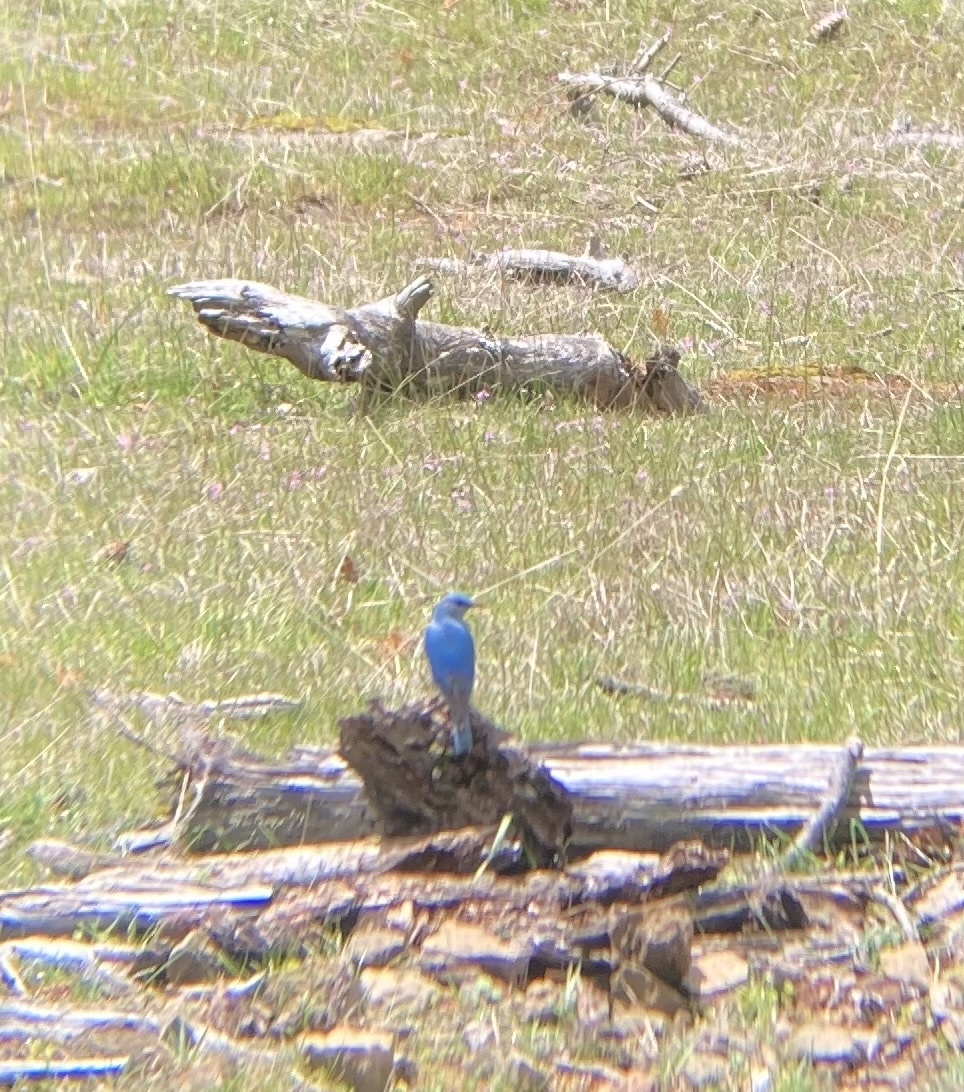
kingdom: Animalia
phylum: Chordata
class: Aves
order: Passeriformes
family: Turdidae
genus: Sialia
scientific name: Sialia currucoides
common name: Mountain bluebird
